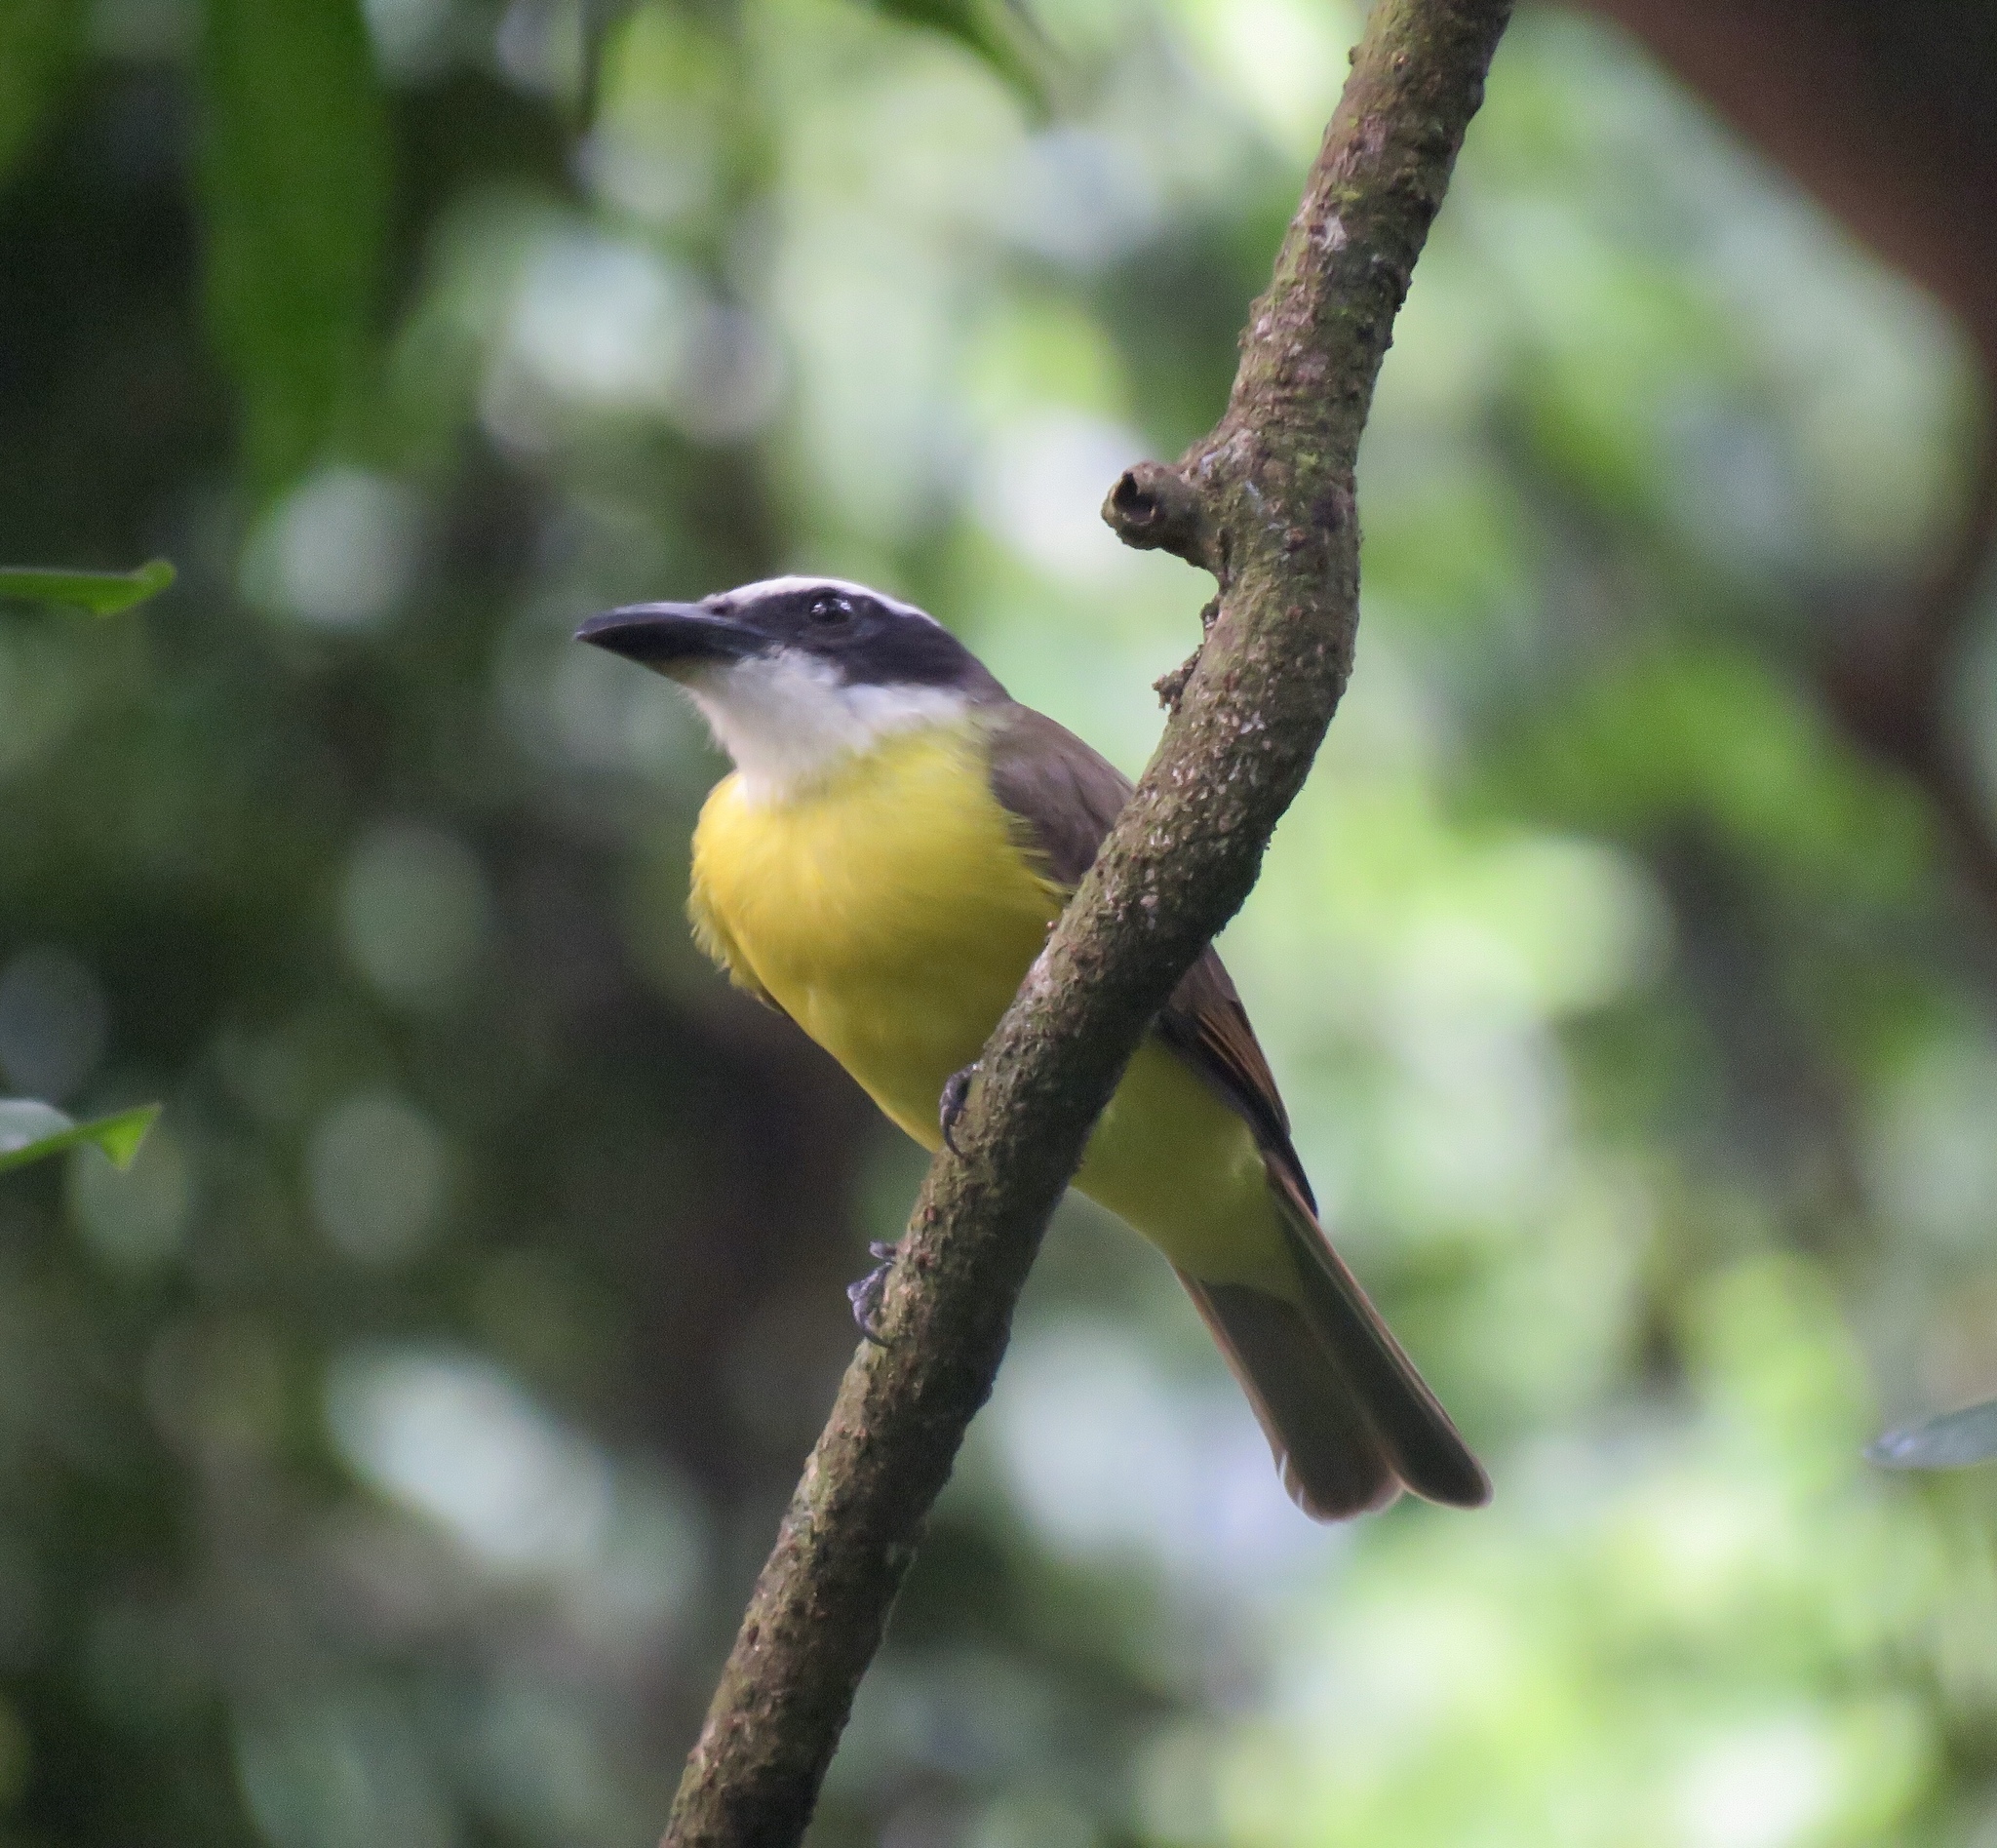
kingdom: Animalia
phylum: Chordata
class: Aves
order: Passeriformes
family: Tyrannidae
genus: Megarynchus
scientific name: Megarynchus pitangua
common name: Boat-billed flycatcher
